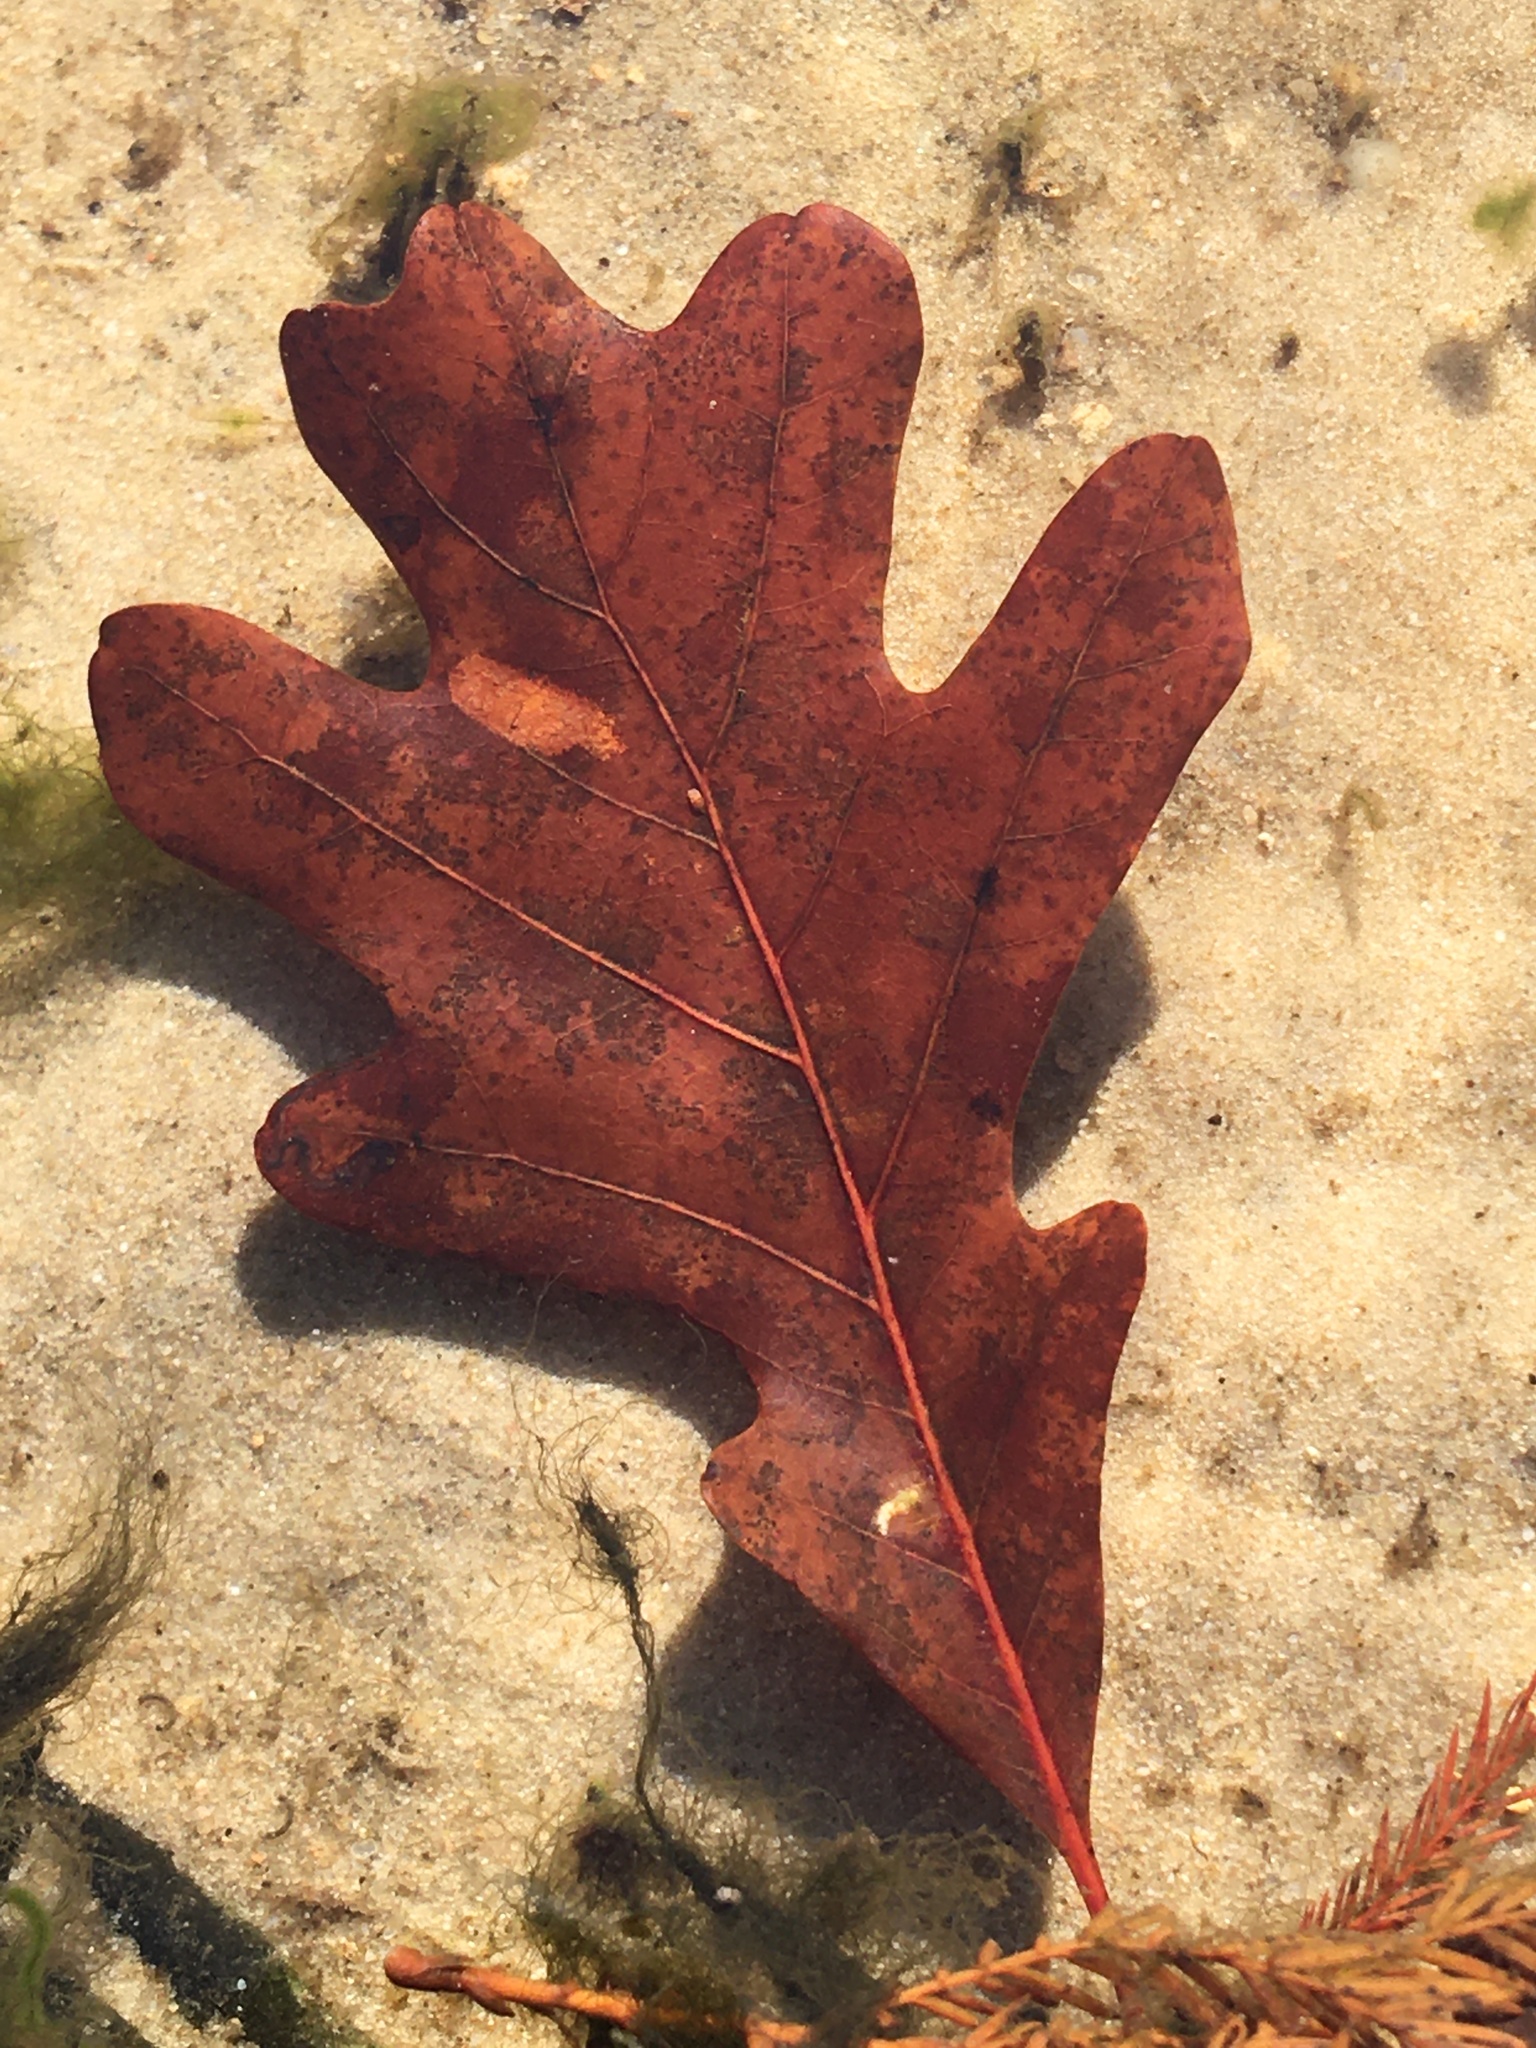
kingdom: Plantae
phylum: Tracheophyta
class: Magnoliopsida
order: Fagales
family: Fagaceae
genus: Quercus
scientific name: Quercus alba
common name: White oak
